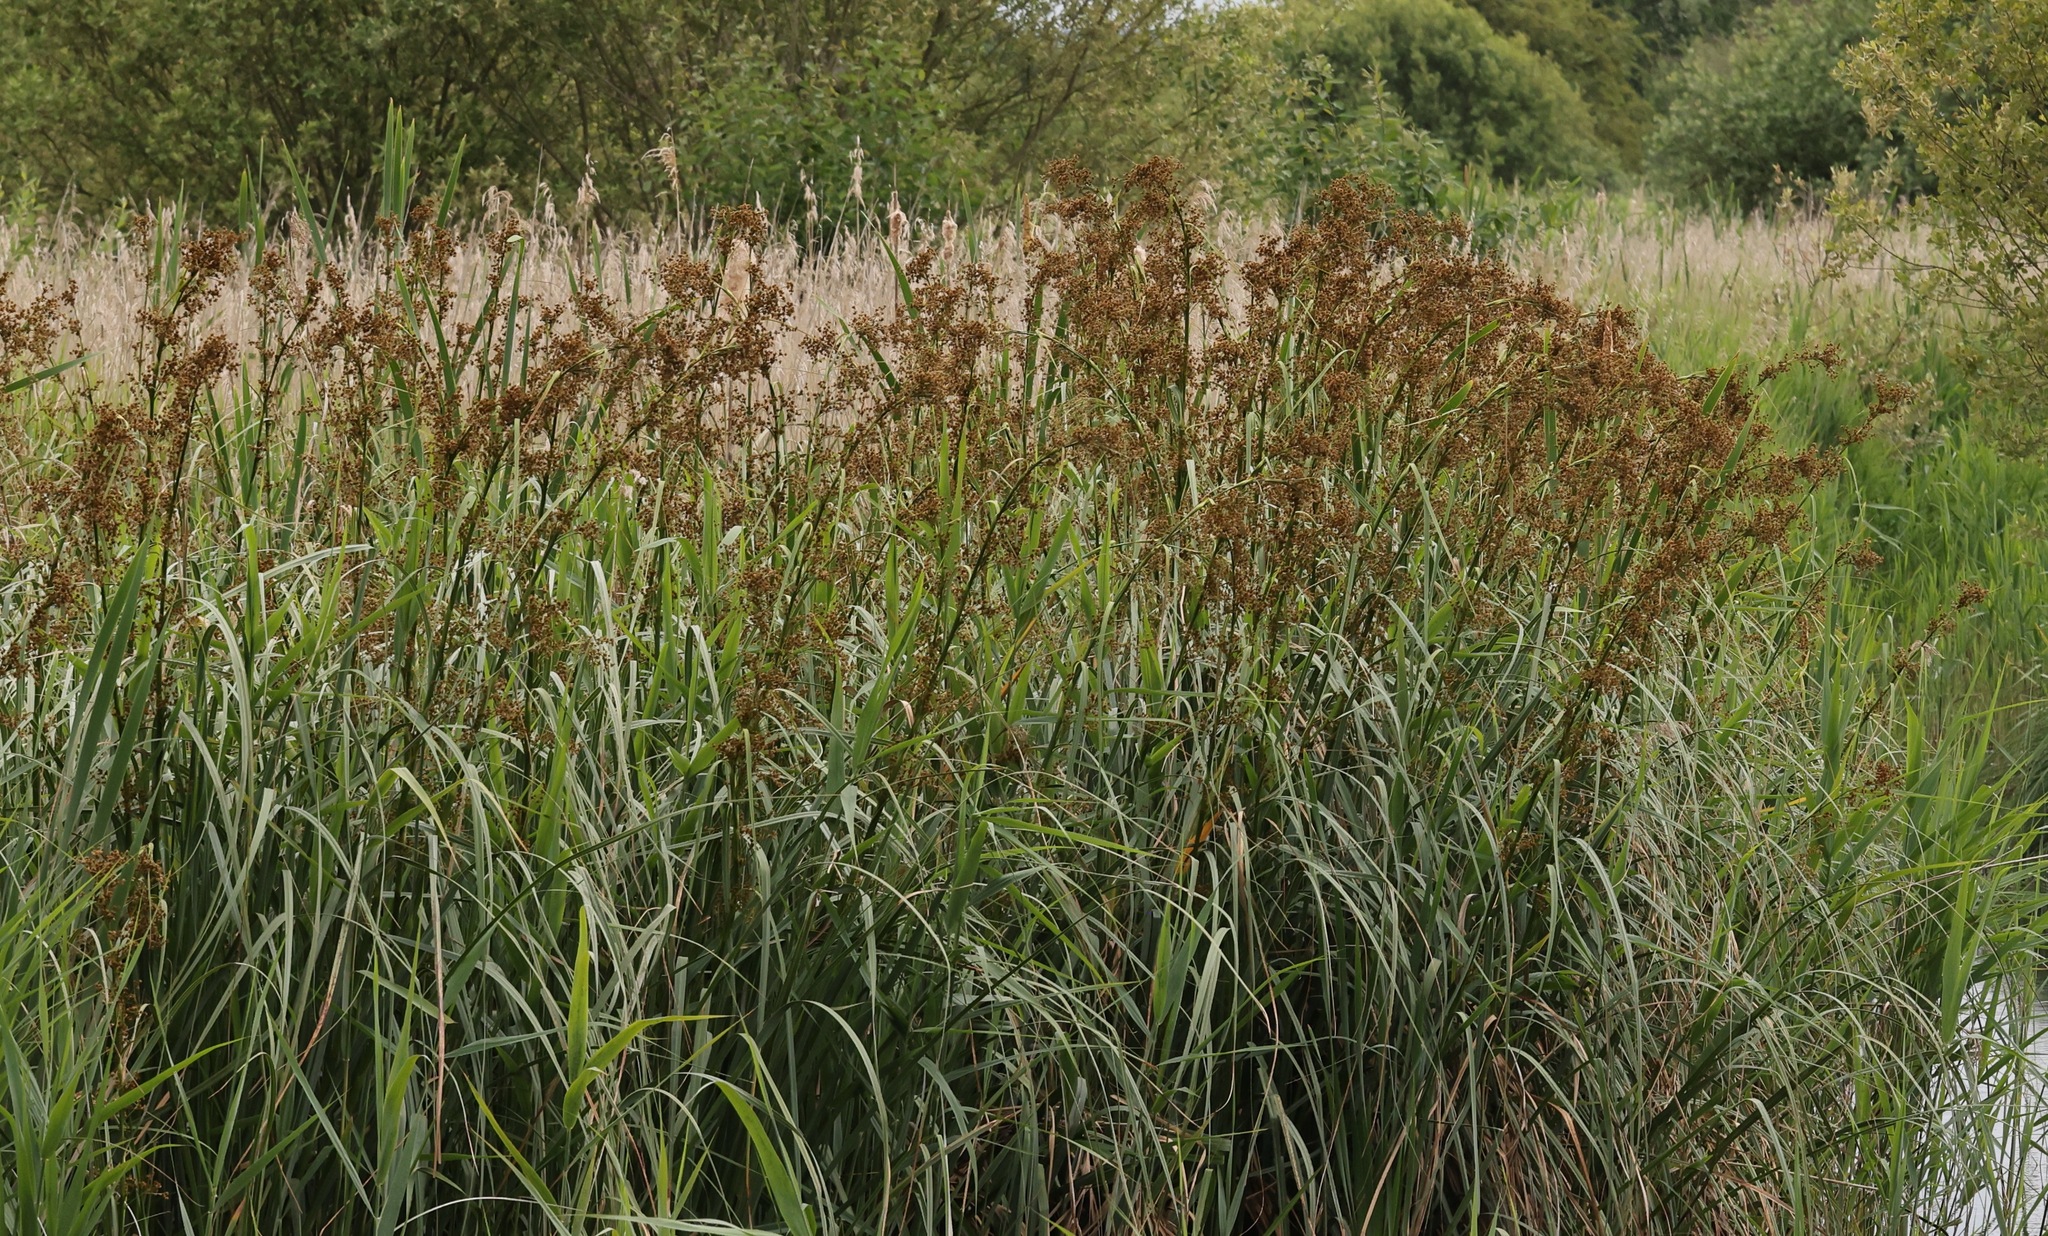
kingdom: Plantae
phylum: Tracheophyta
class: Liliopsida
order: Poales
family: Cyperaceae
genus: Cladium
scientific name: Cladium mariscus
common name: Great fen-sedge
